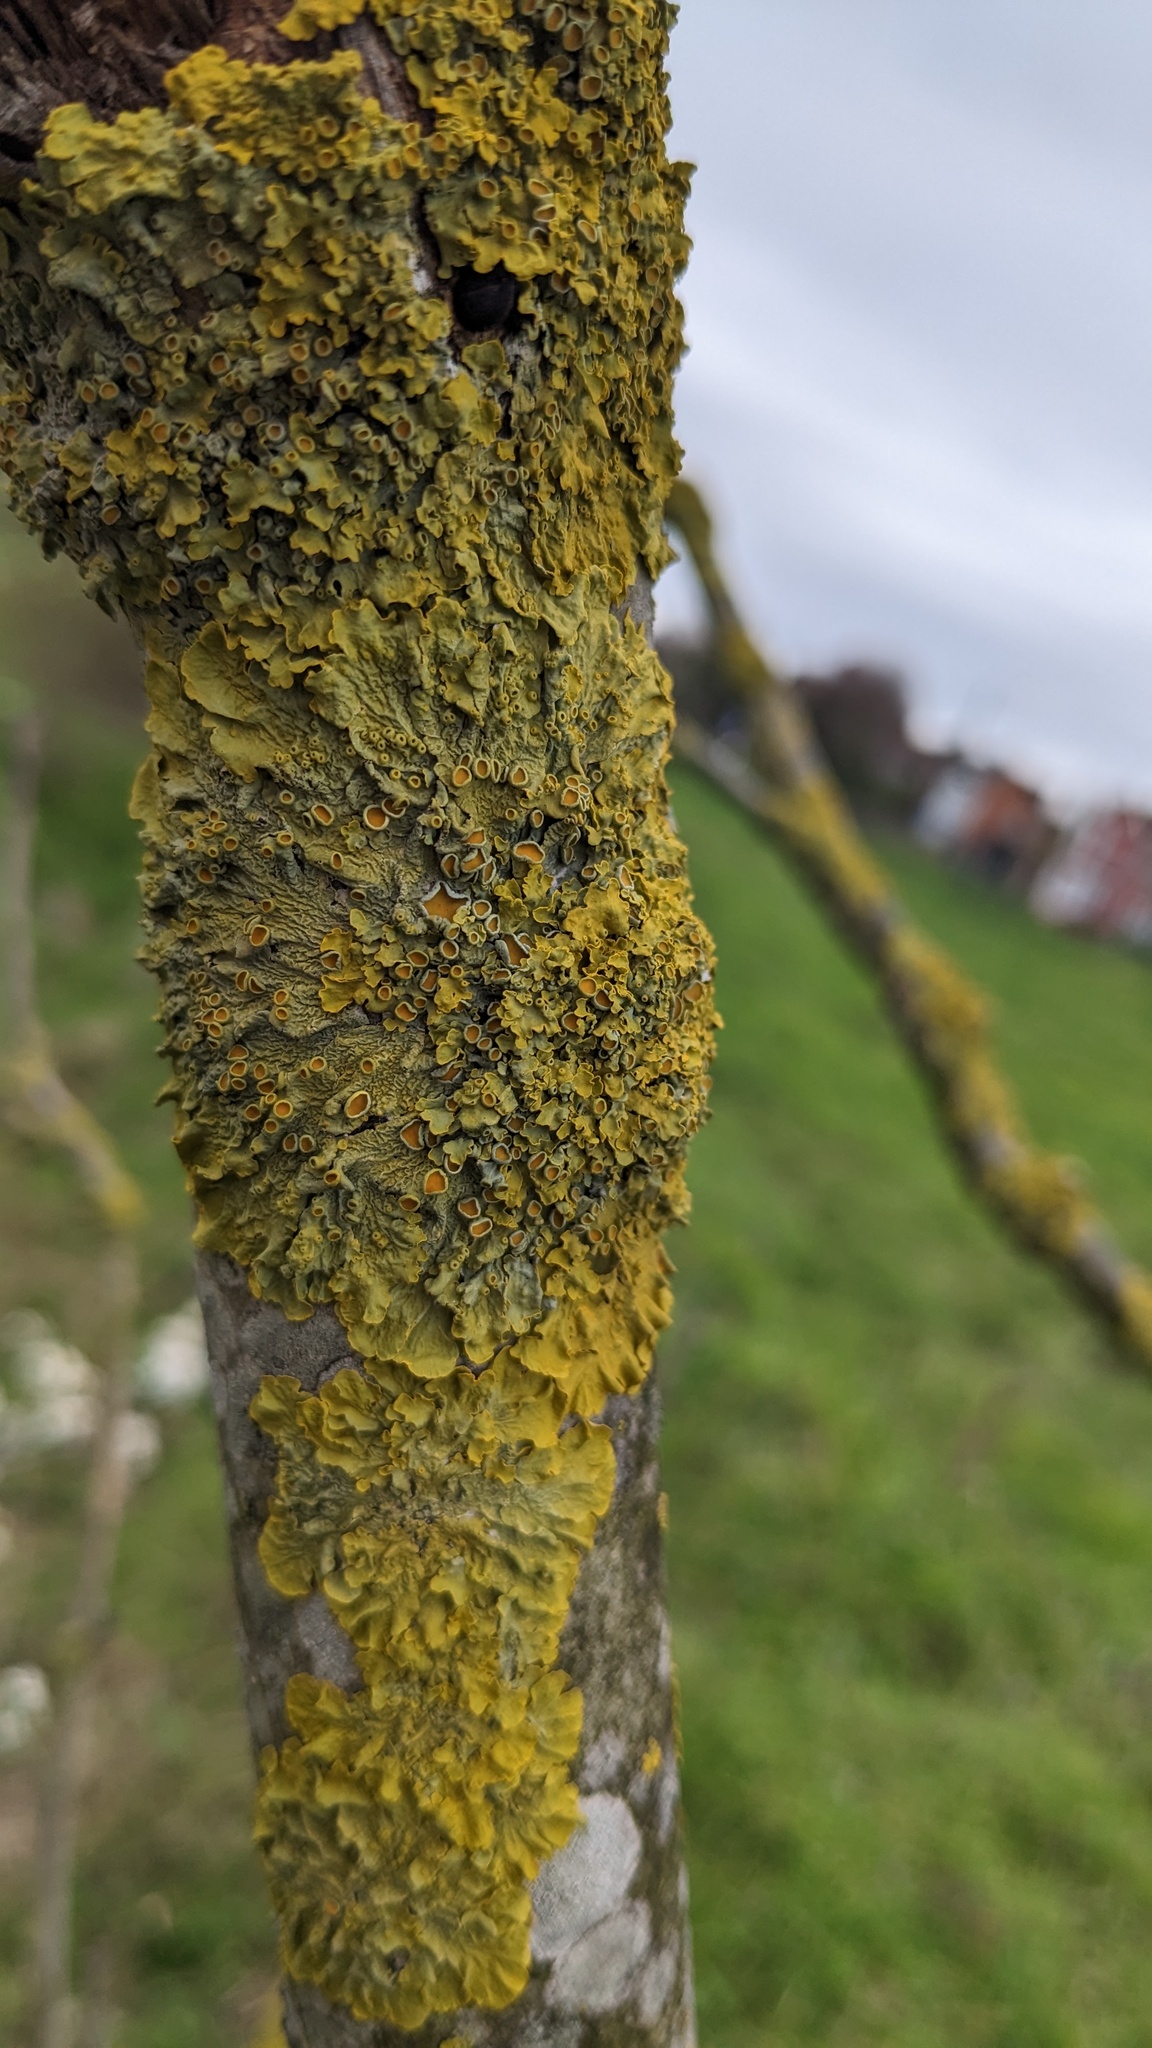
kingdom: Fungi
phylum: Ascomycota
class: Lecanoromycetes
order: Teloschistales
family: Teloschistaceae
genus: Xanthoria
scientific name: Xanthoria parietina
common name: Common orange lichen
